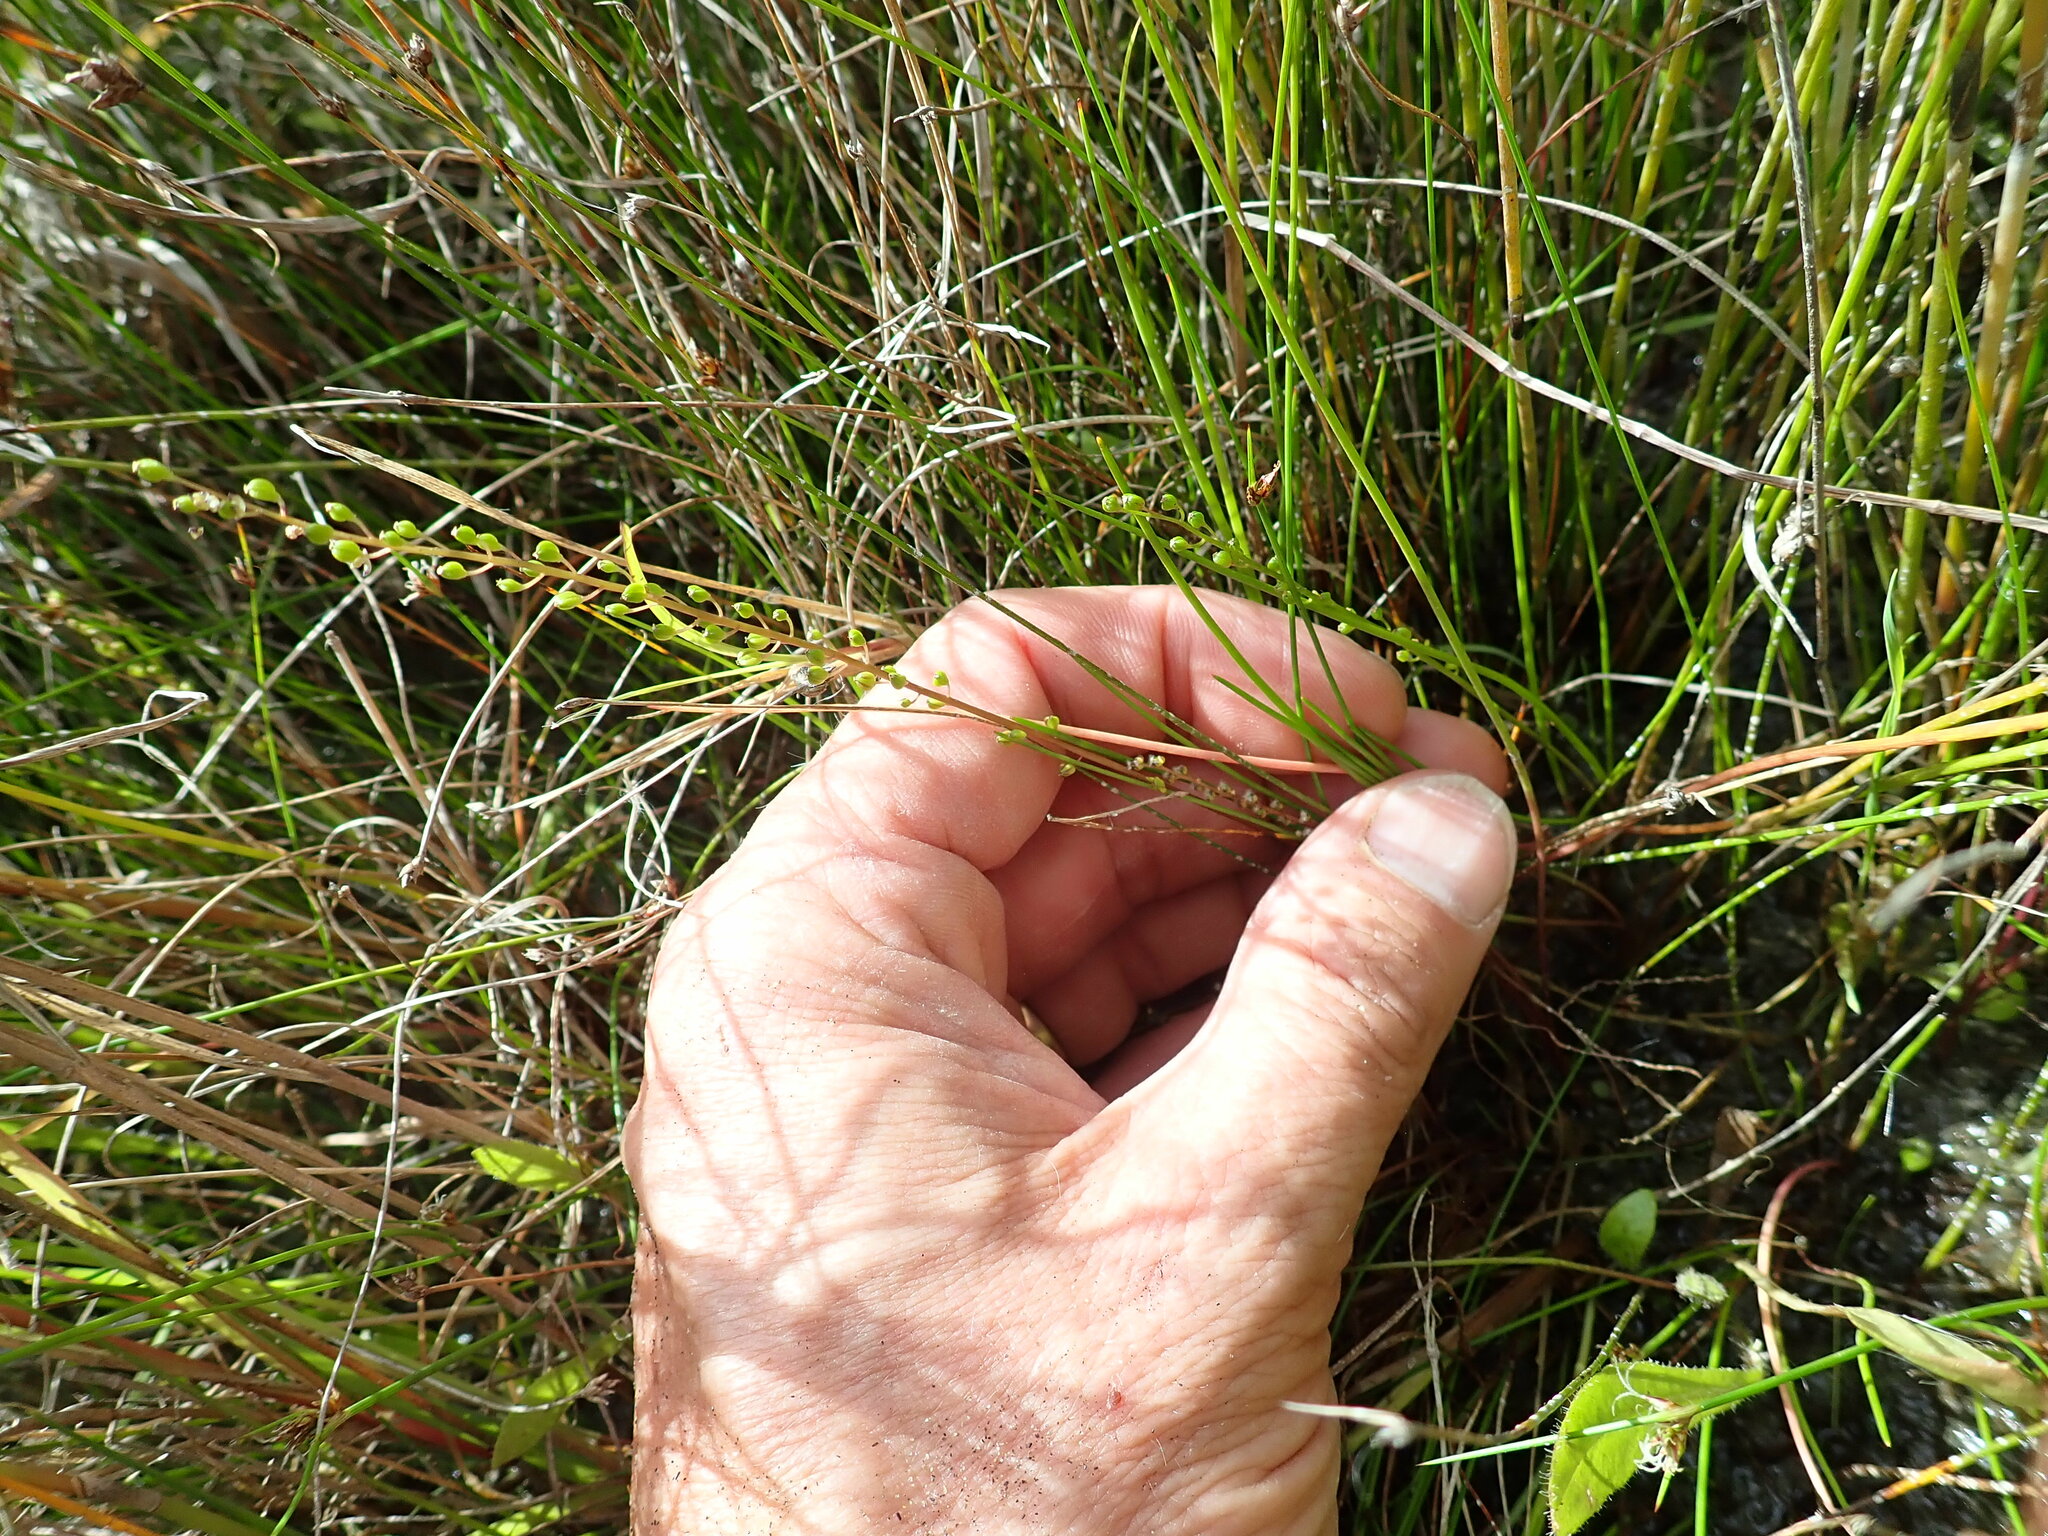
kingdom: Plantae
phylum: Tracheophyta
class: Liliopsida
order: Alismatales
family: Juncaginaceae
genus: Triglochin
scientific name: Triglochin striata
